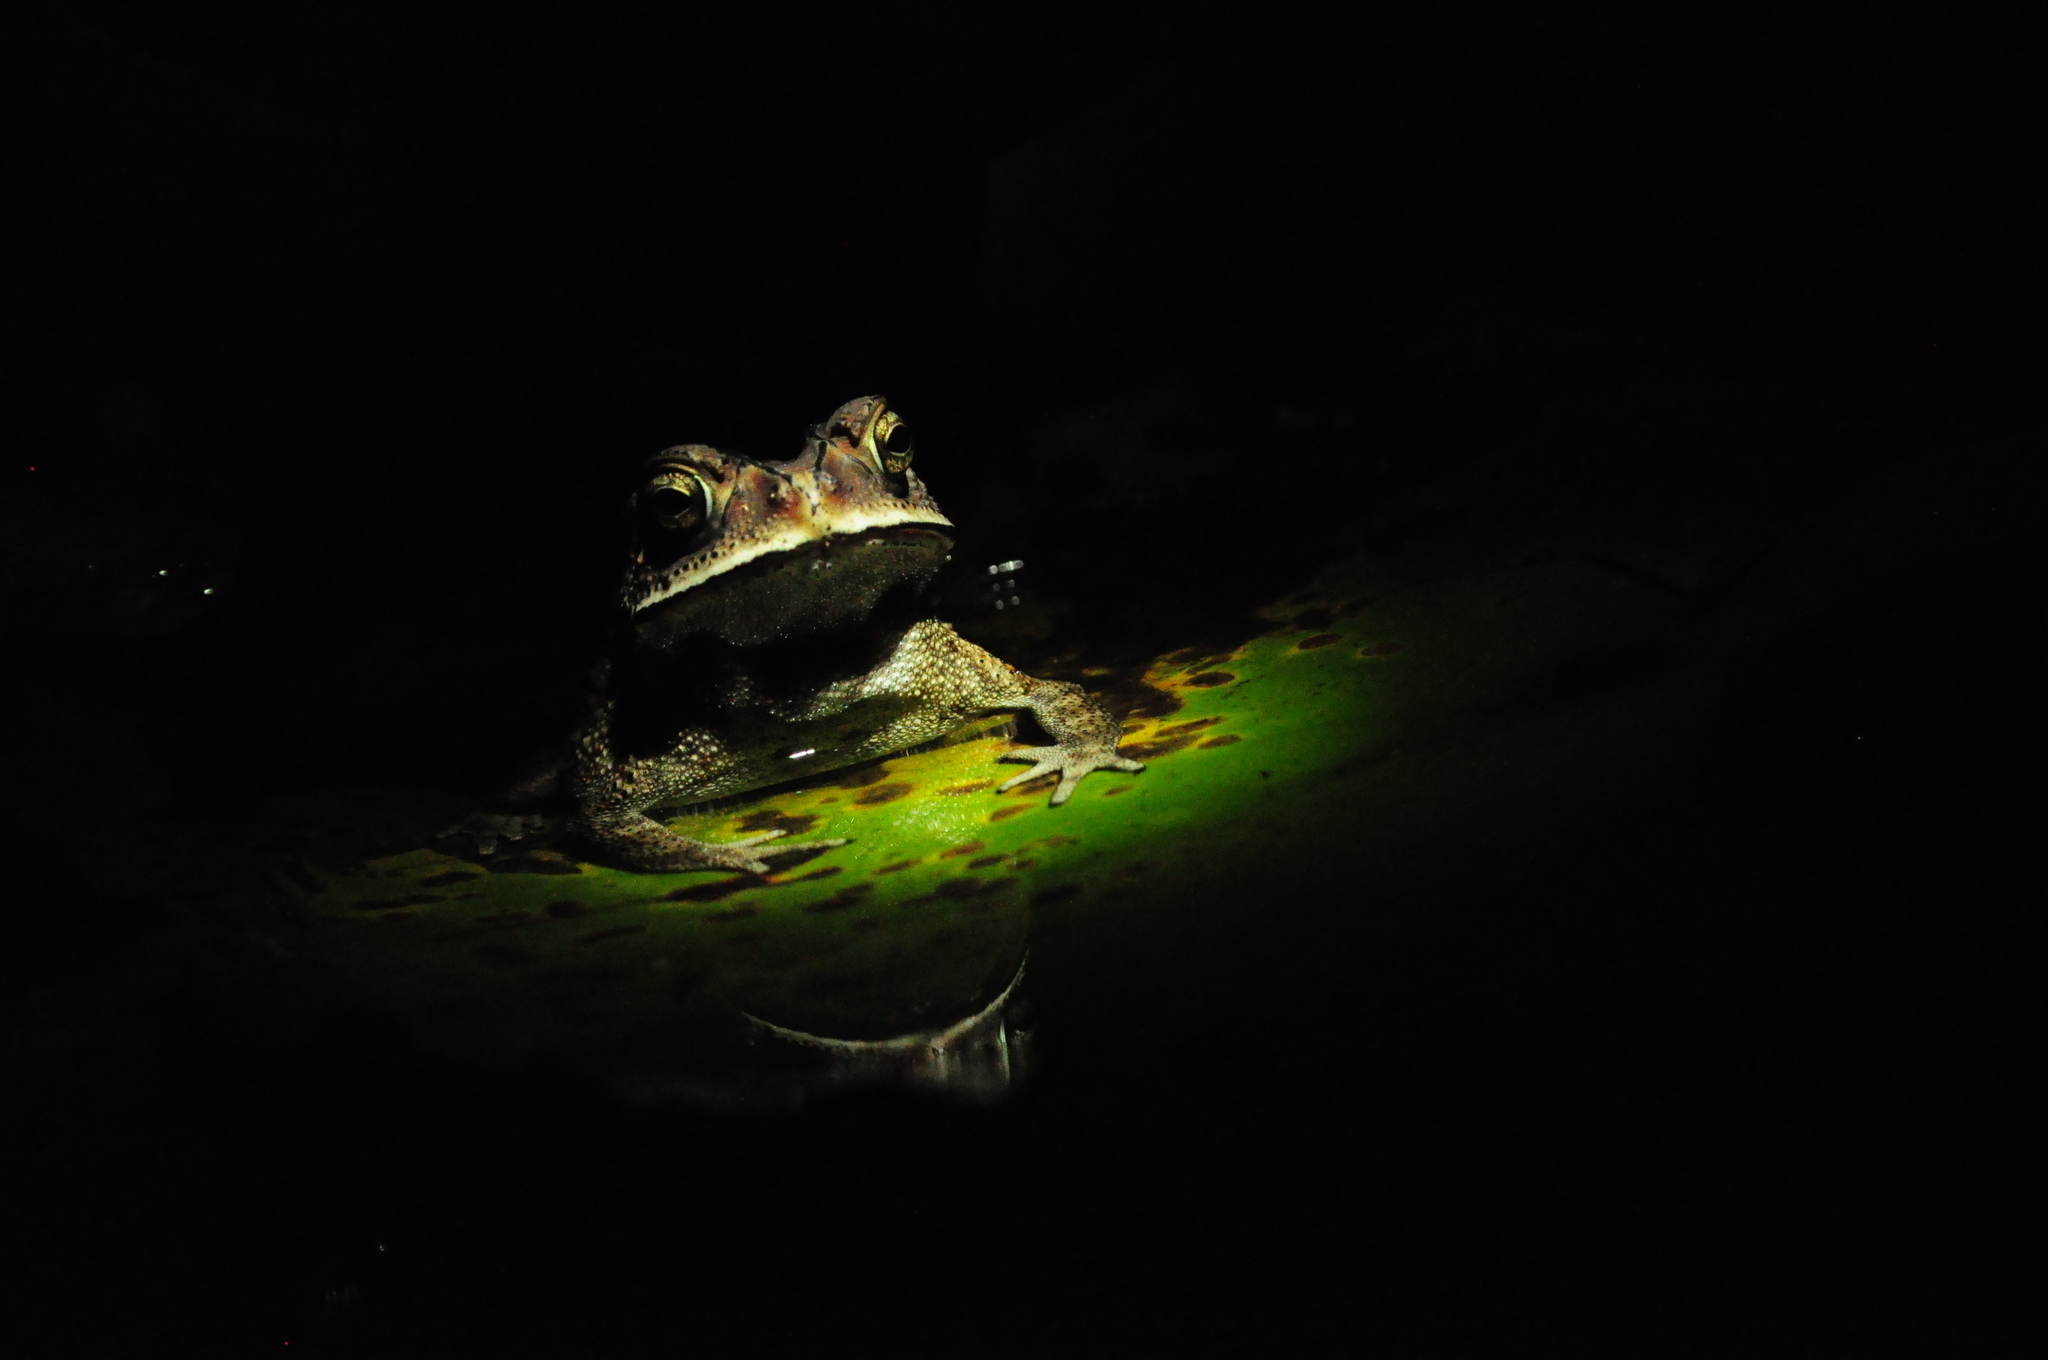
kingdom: Animalia
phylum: Chordata
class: Amphibia
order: Anura
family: Bufonidae
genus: Duttaphrynus
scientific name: Duttaphrynus melanostictus
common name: Common sunda toad
